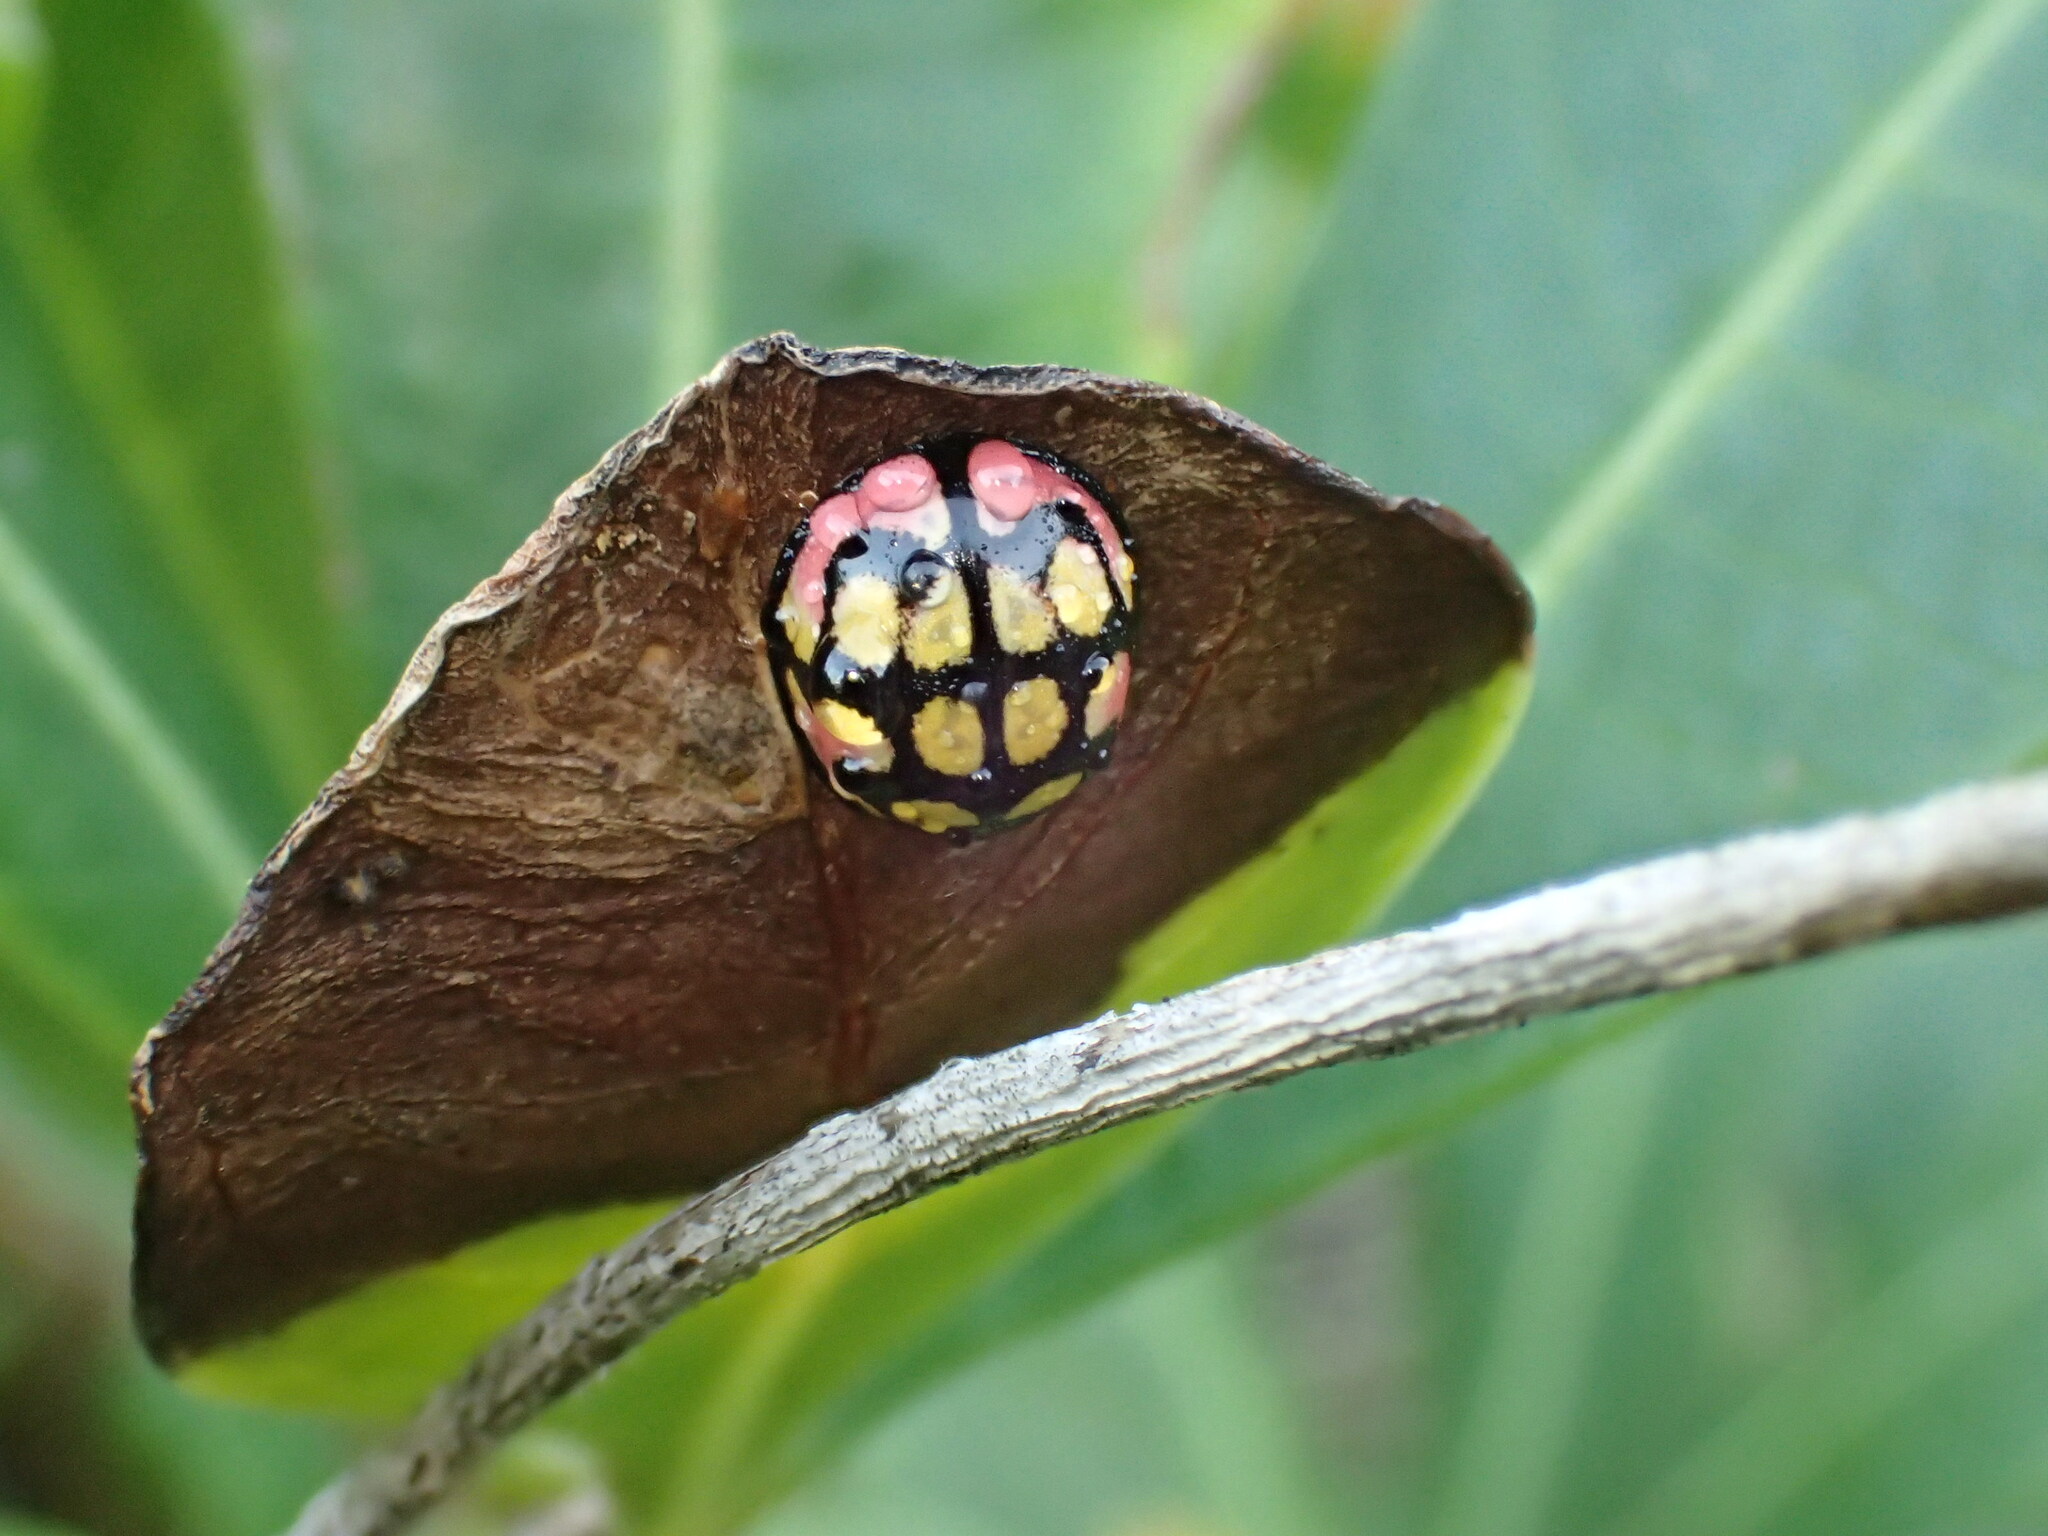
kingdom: Animalia
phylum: Arthropoda
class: Insecta
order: Coleoptera
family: Coccinellidae
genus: Cheilomenes
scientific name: Cheilomenes sulphurea
